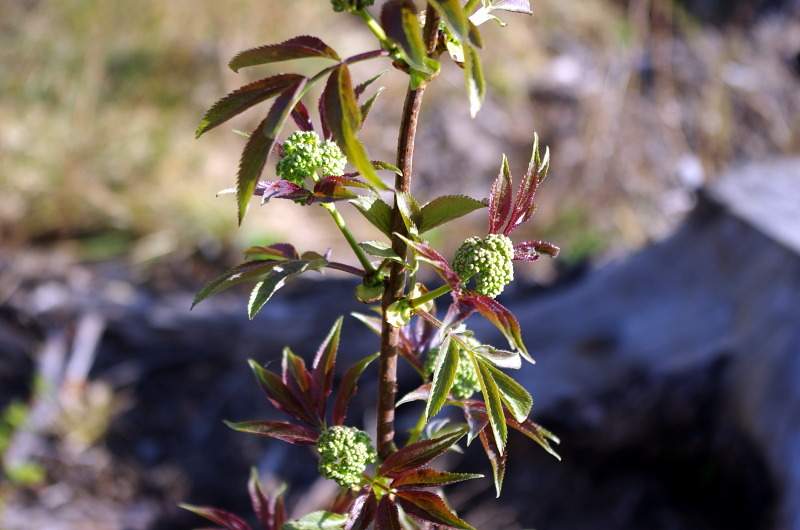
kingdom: Plantae
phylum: Tracheophyta
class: Magnoliopsida
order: Dipsacales
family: Viburnaceae
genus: Sambucus
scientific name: Sambucus racemosa
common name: Red-berried elder
